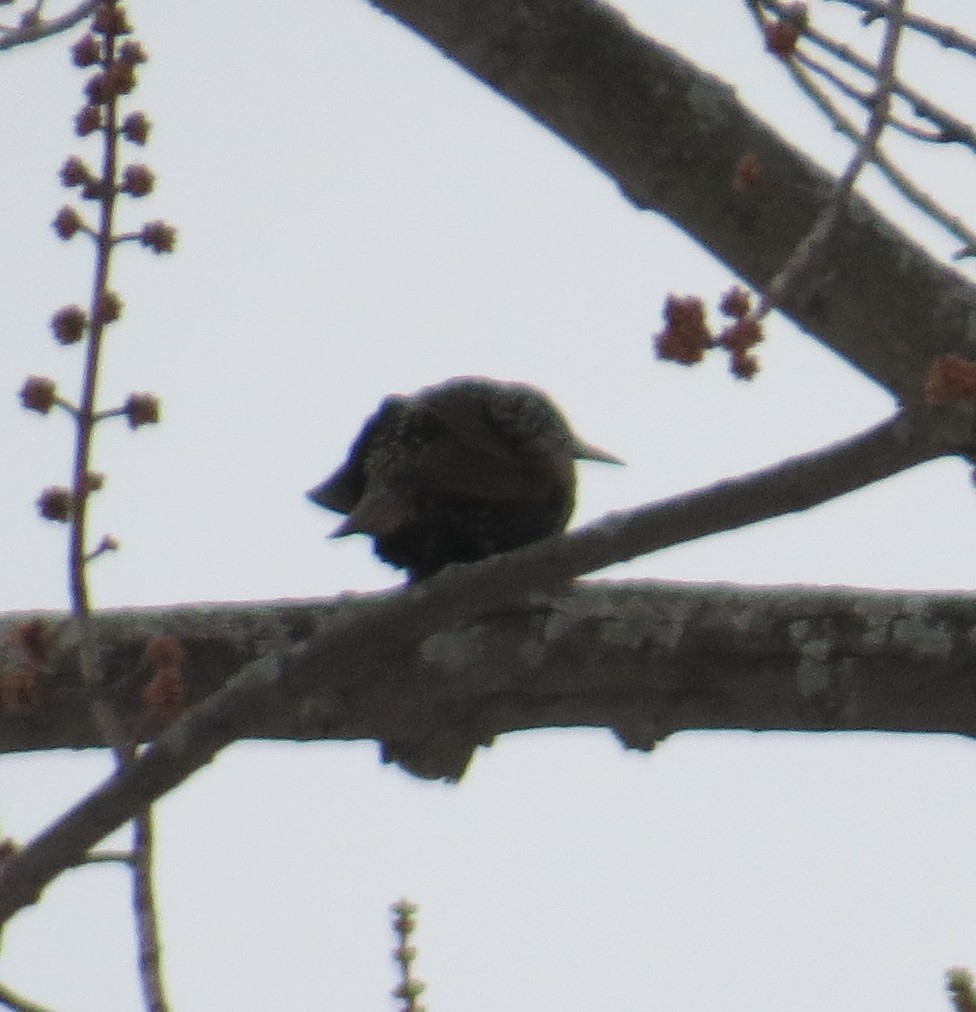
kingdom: Animalia
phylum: Chordata
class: Aves
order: Passeriformes
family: Sturnidae
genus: Sturnus
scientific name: Sturnus vulgaris
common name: Common starling
